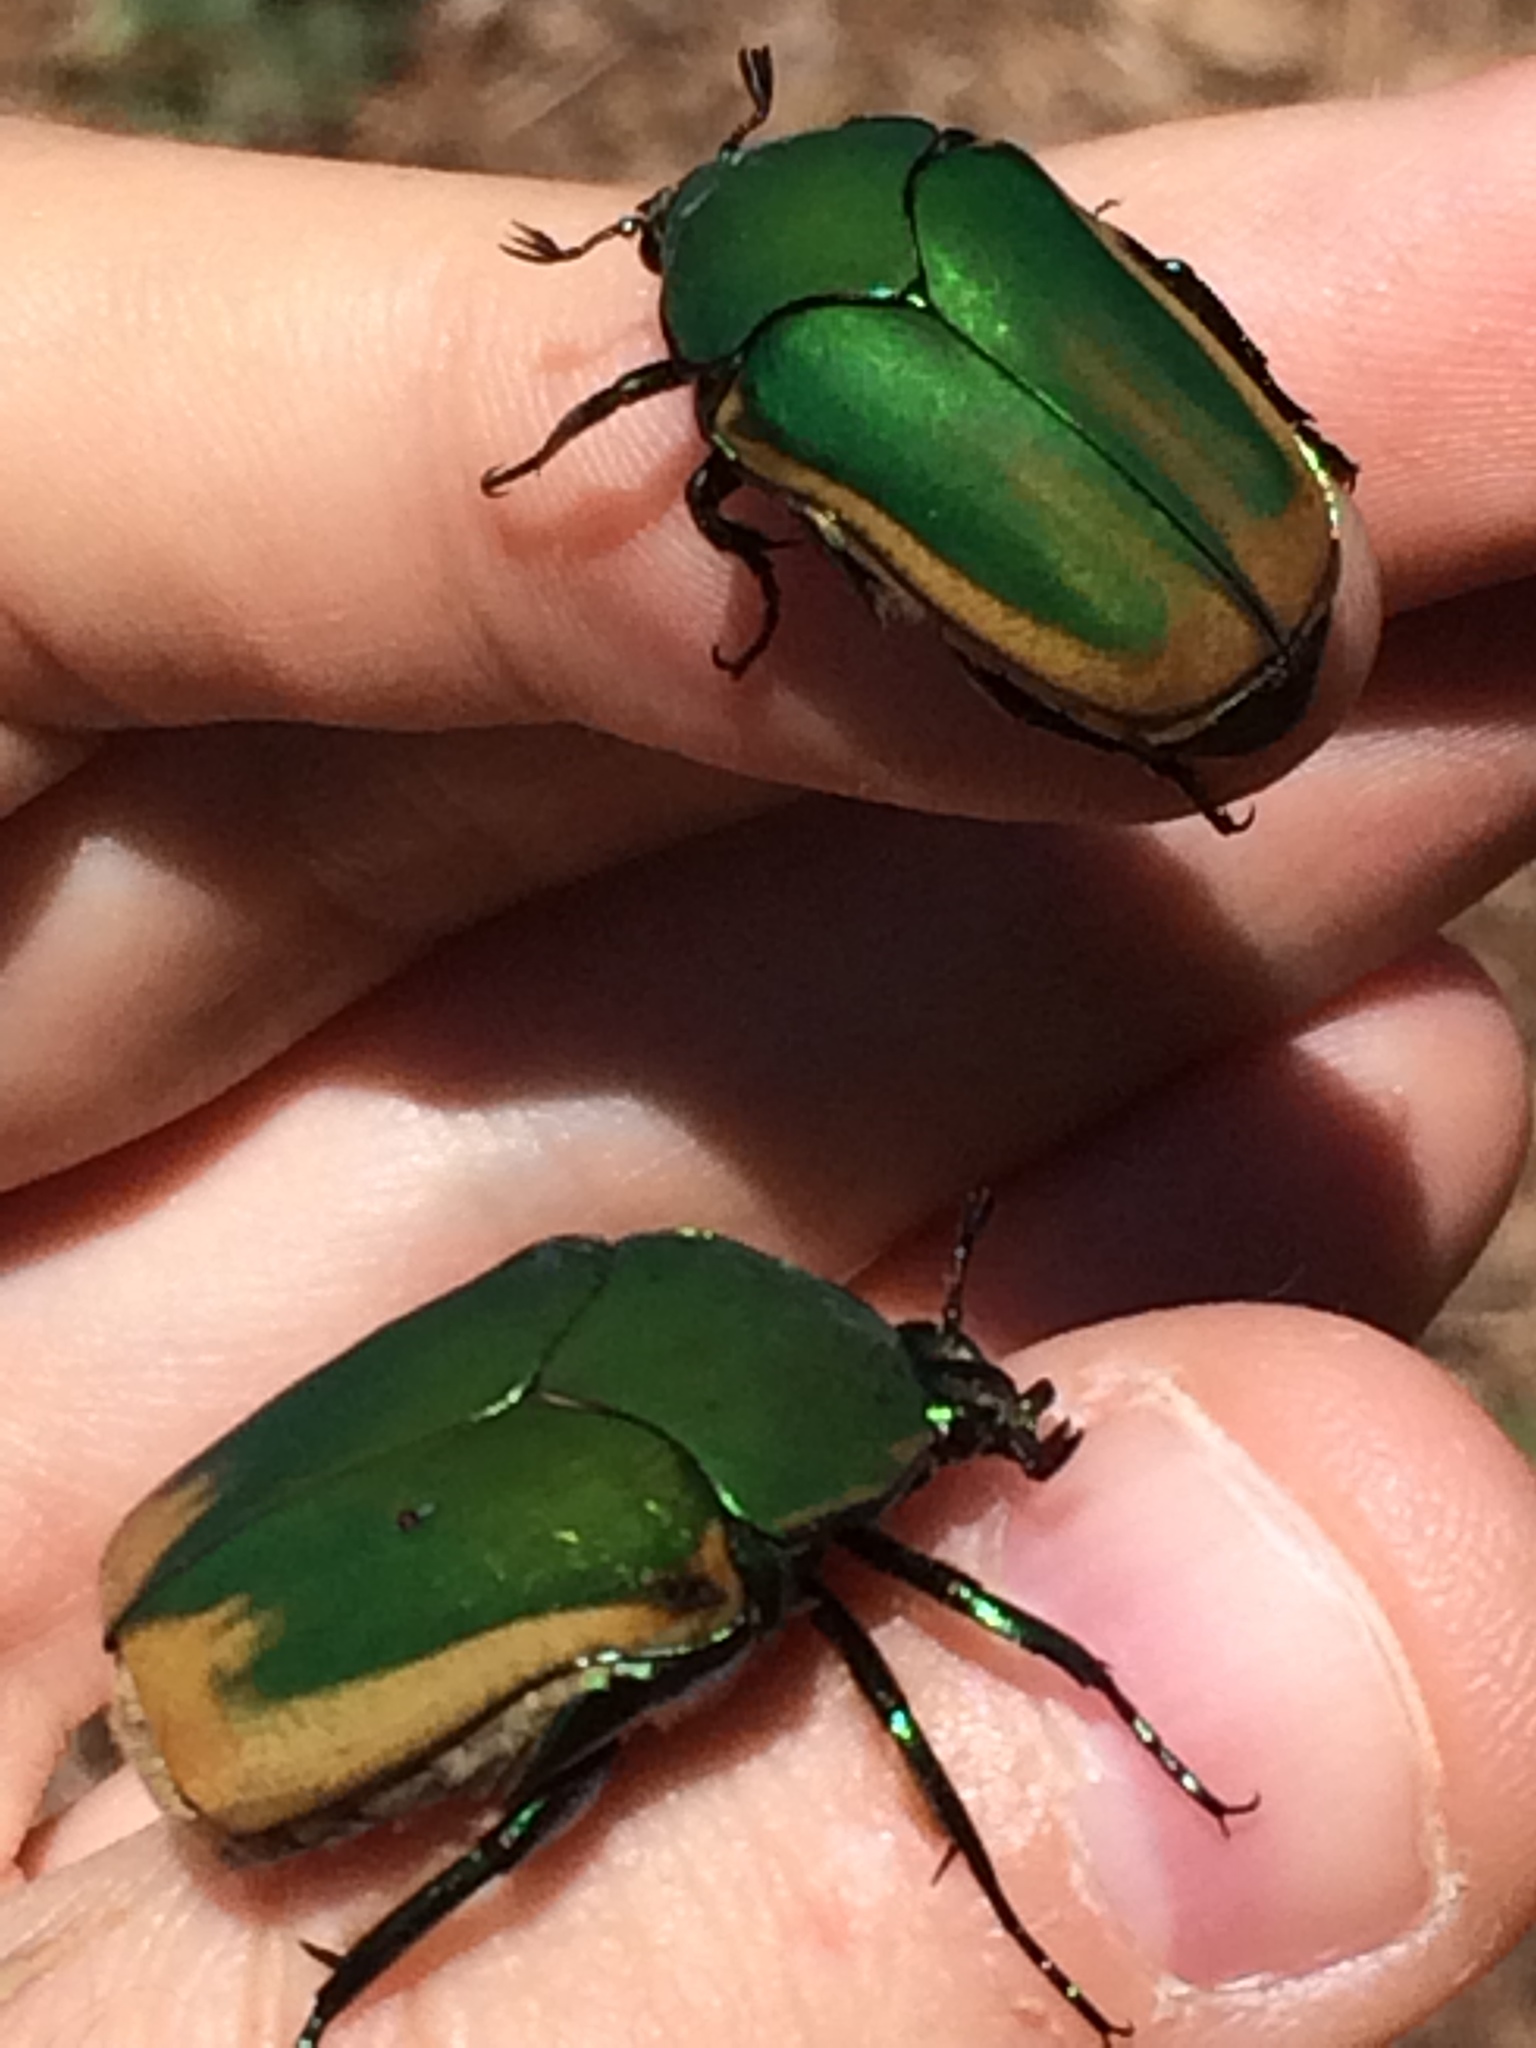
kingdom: Animalia
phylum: Arthropoda
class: Insecta
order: Coleoptera
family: Scarabaeidae
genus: Cotinis
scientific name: Cotinis mutabilis
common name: Figeater beetle
